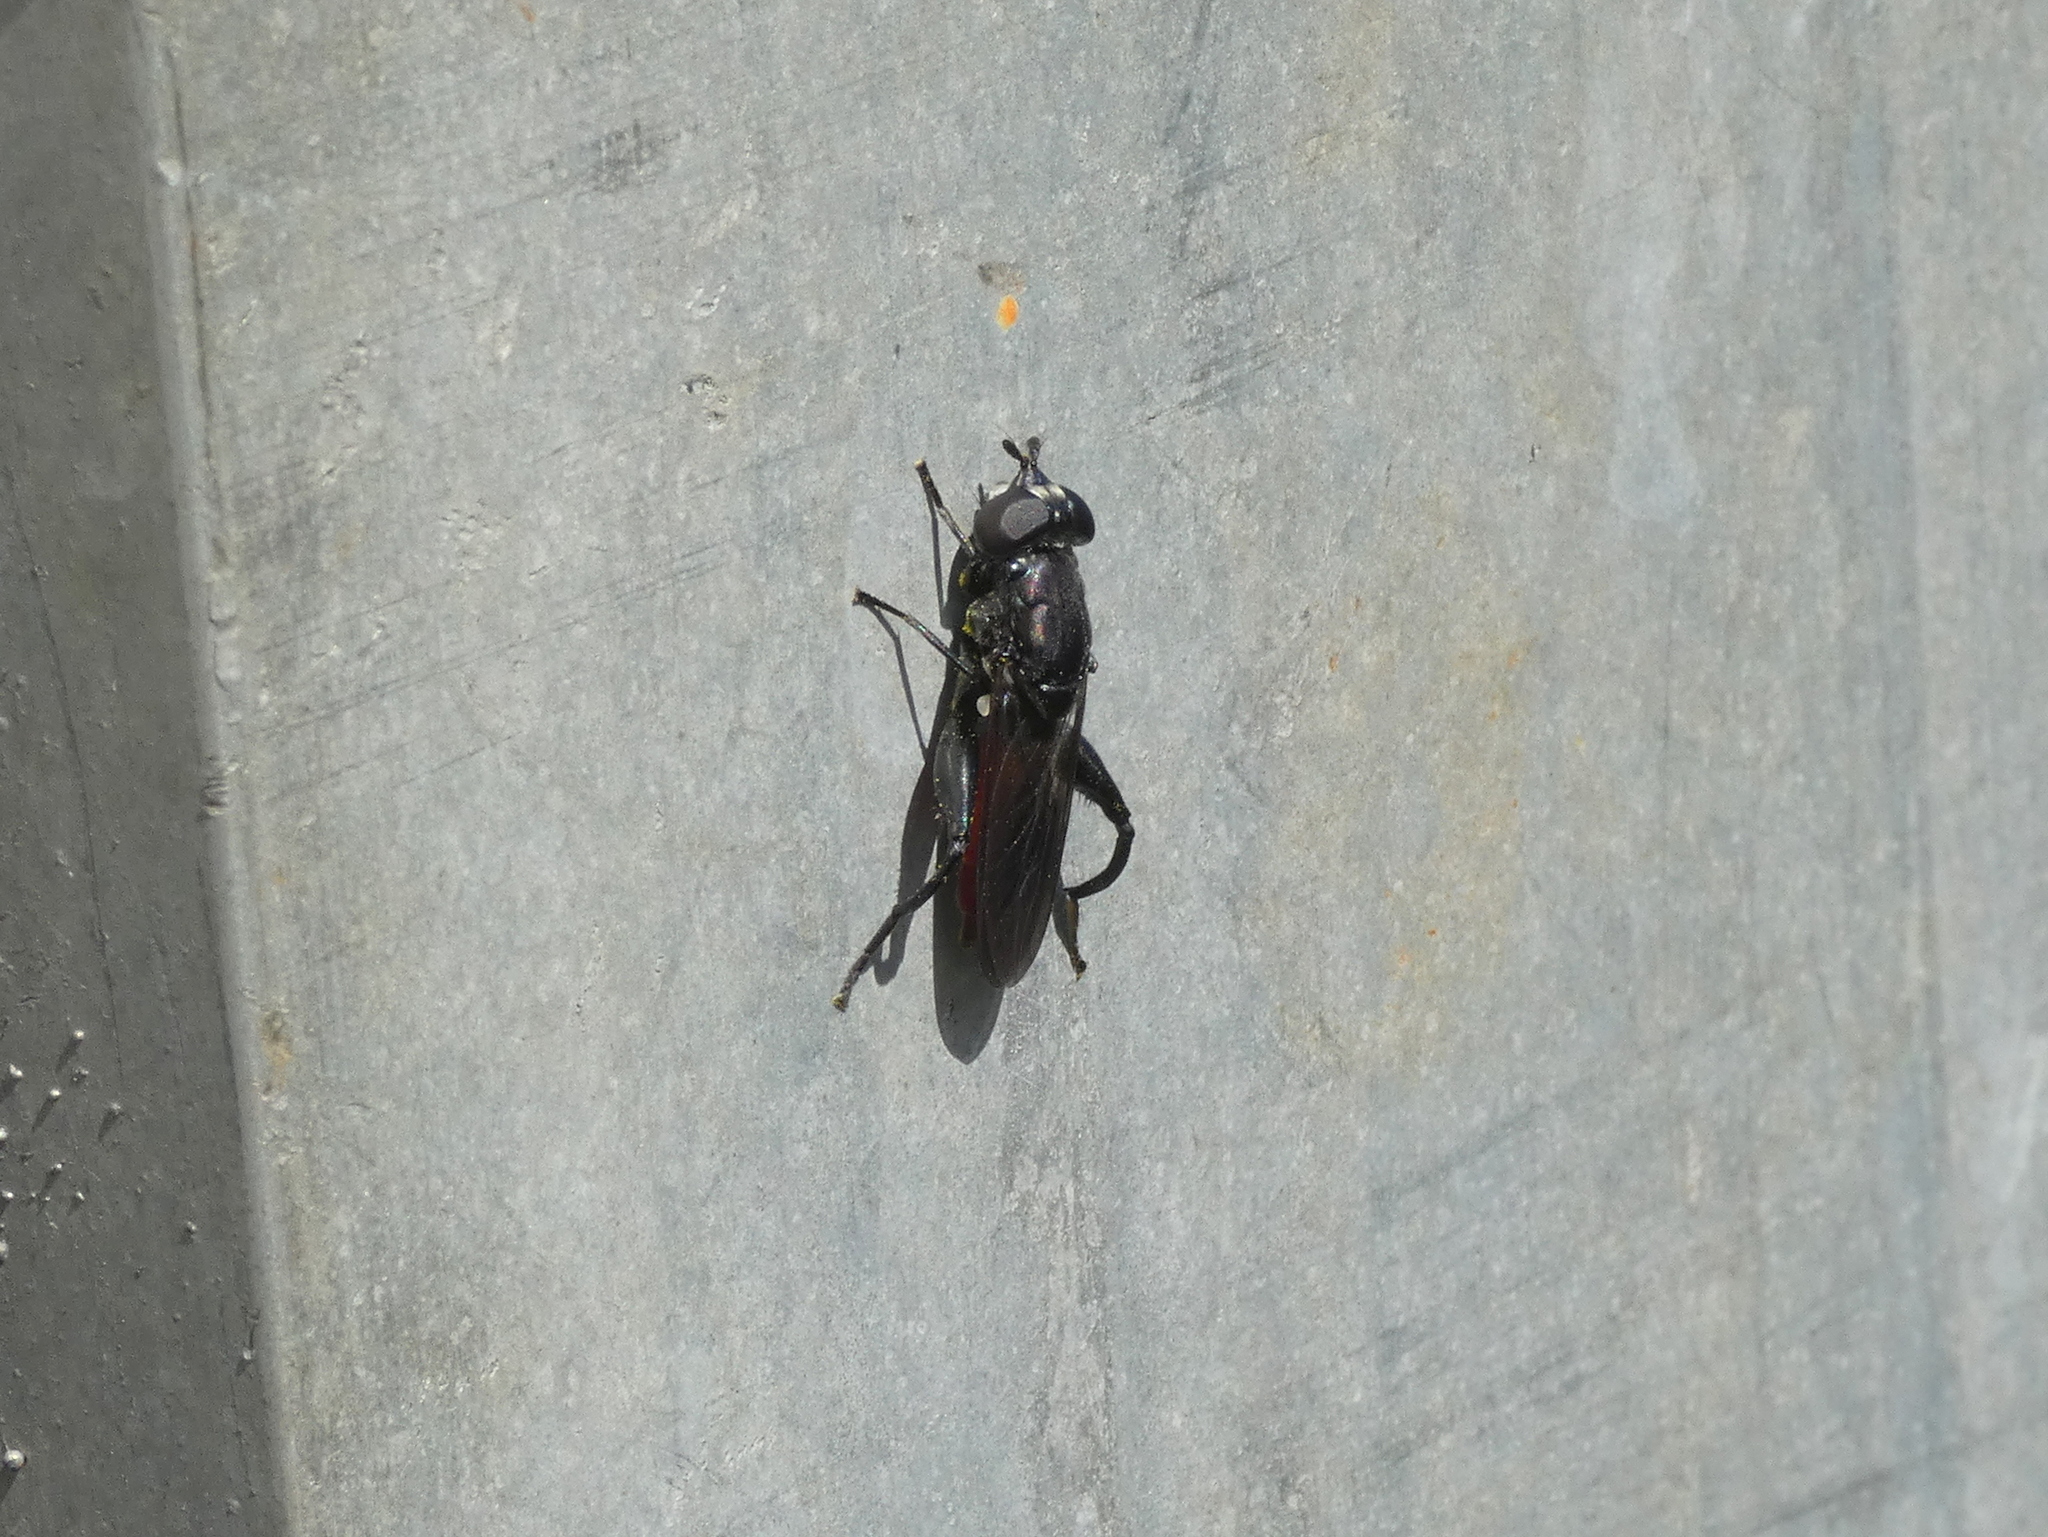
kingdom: Animalia
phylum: Arthropoda
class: Insecta
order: Diptera
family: Syrphidae
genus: Chalcosyrphus
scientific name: Chalcosyrphus piger
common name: Short-haired leafwalker
